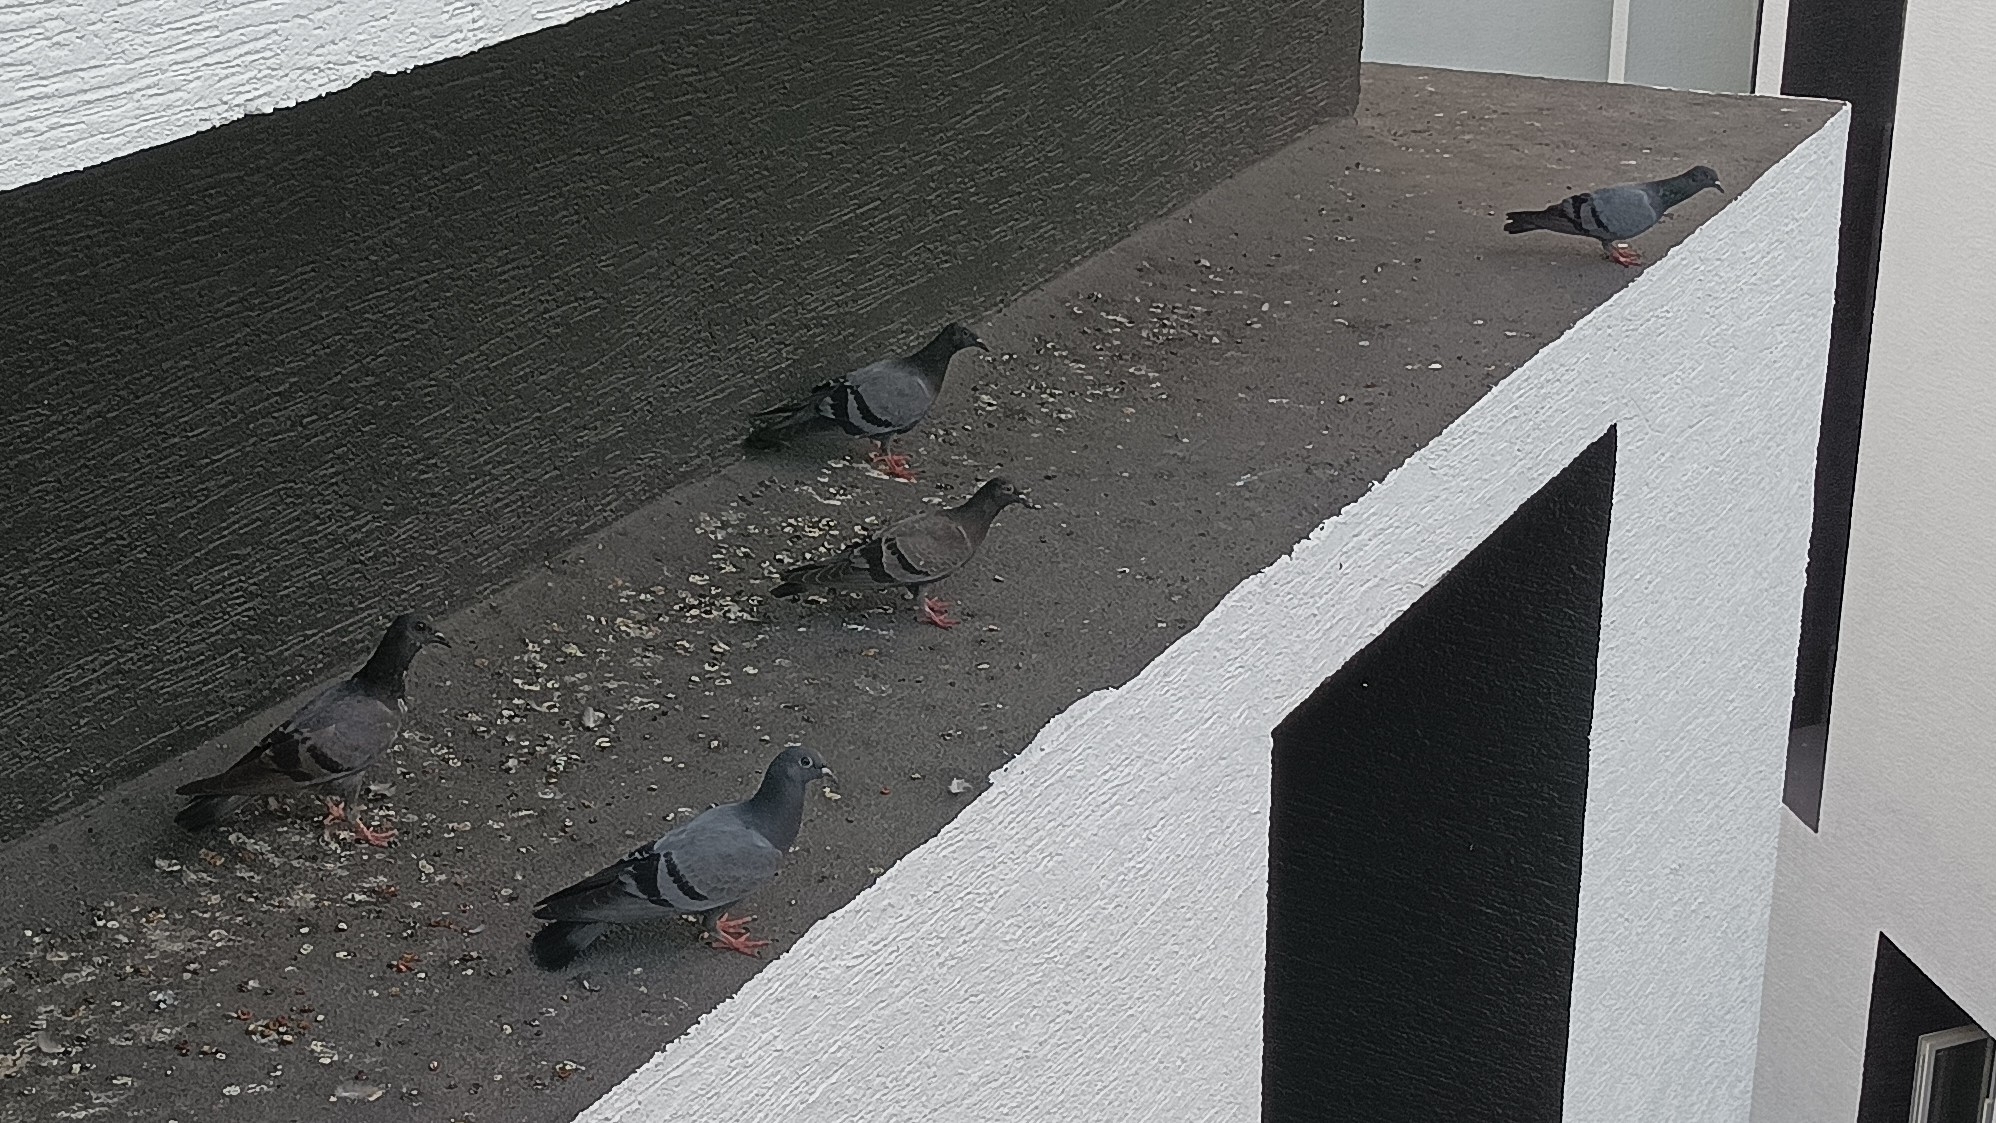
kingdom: Animalia
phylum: Chordata
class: Aves
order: Columbiformes
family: Columbidae
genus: Columba
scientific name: Columba livia
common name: Rock pigeon
